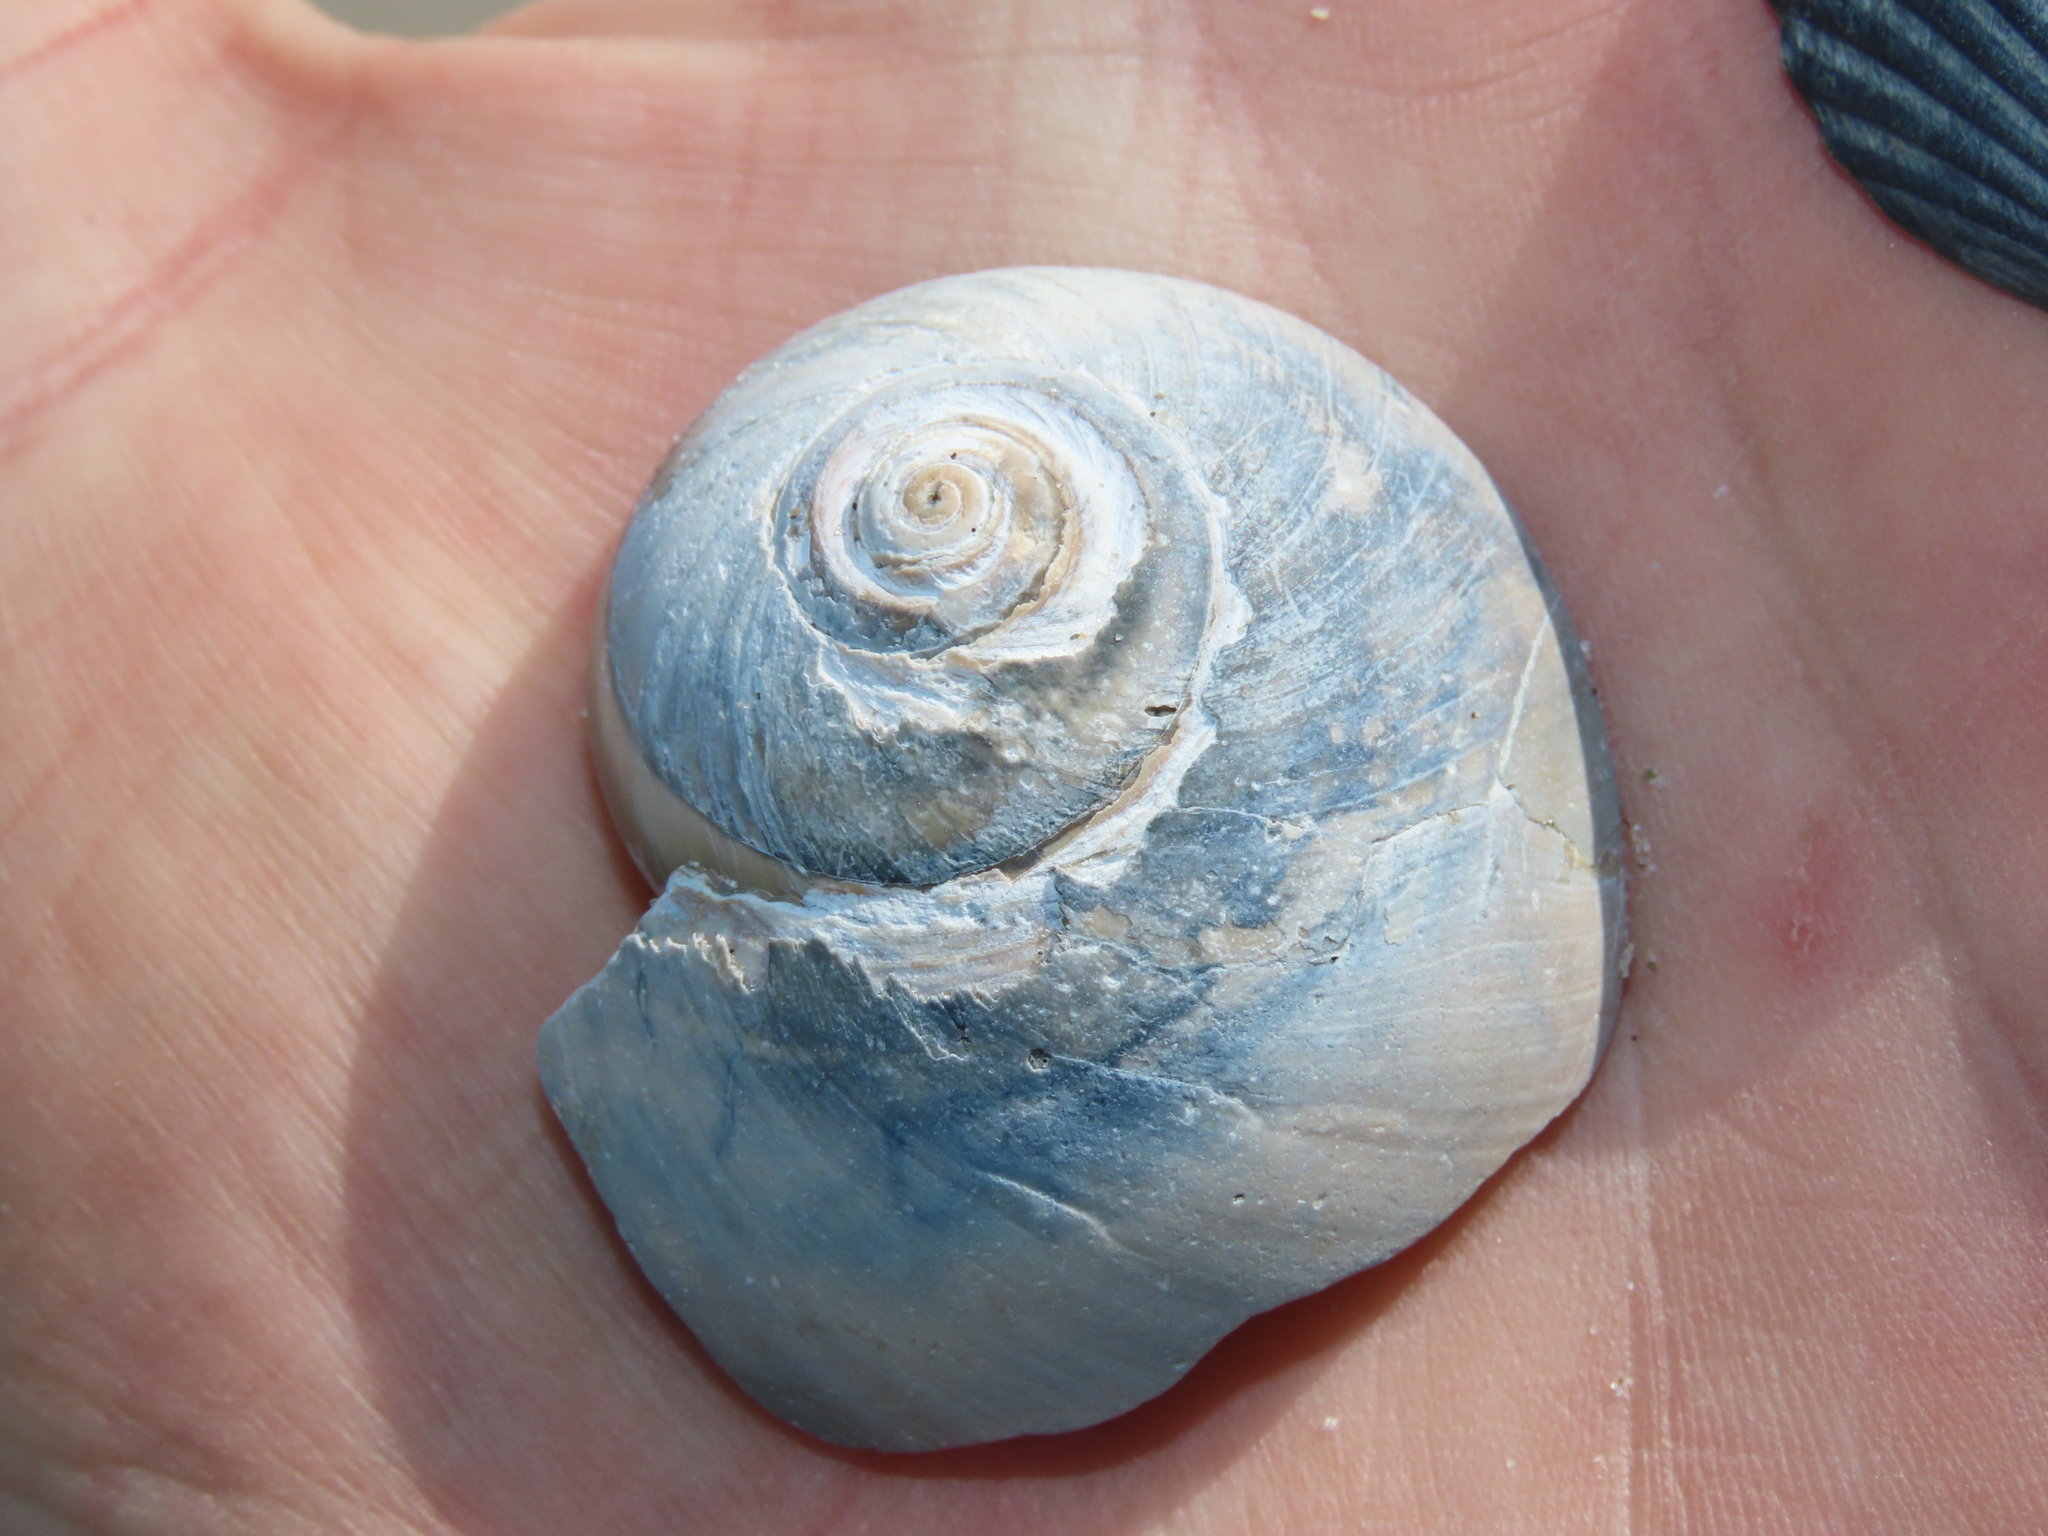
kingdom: Animalia
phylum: Mollusca
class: Gastropoda
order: Littorinimorpha
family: Naticidae
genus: Neverita
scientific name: Neverita duplicata
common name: Lobed moonsnail
